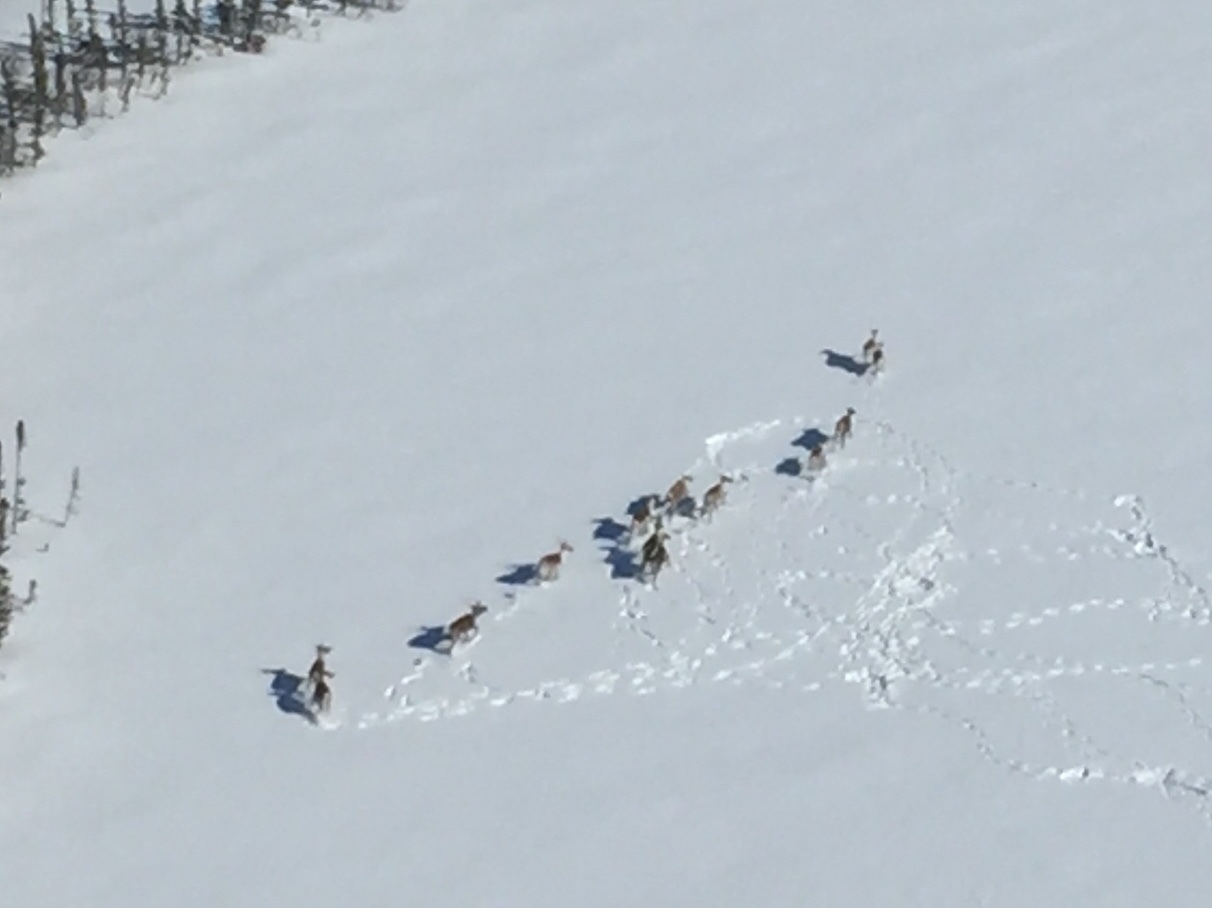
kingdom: Animalia
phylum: Chordata
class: Mammalia
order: Artiodactyla
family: Cervidae
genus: Rangifer
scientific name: Rangifer tarandus
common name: Reindeer
